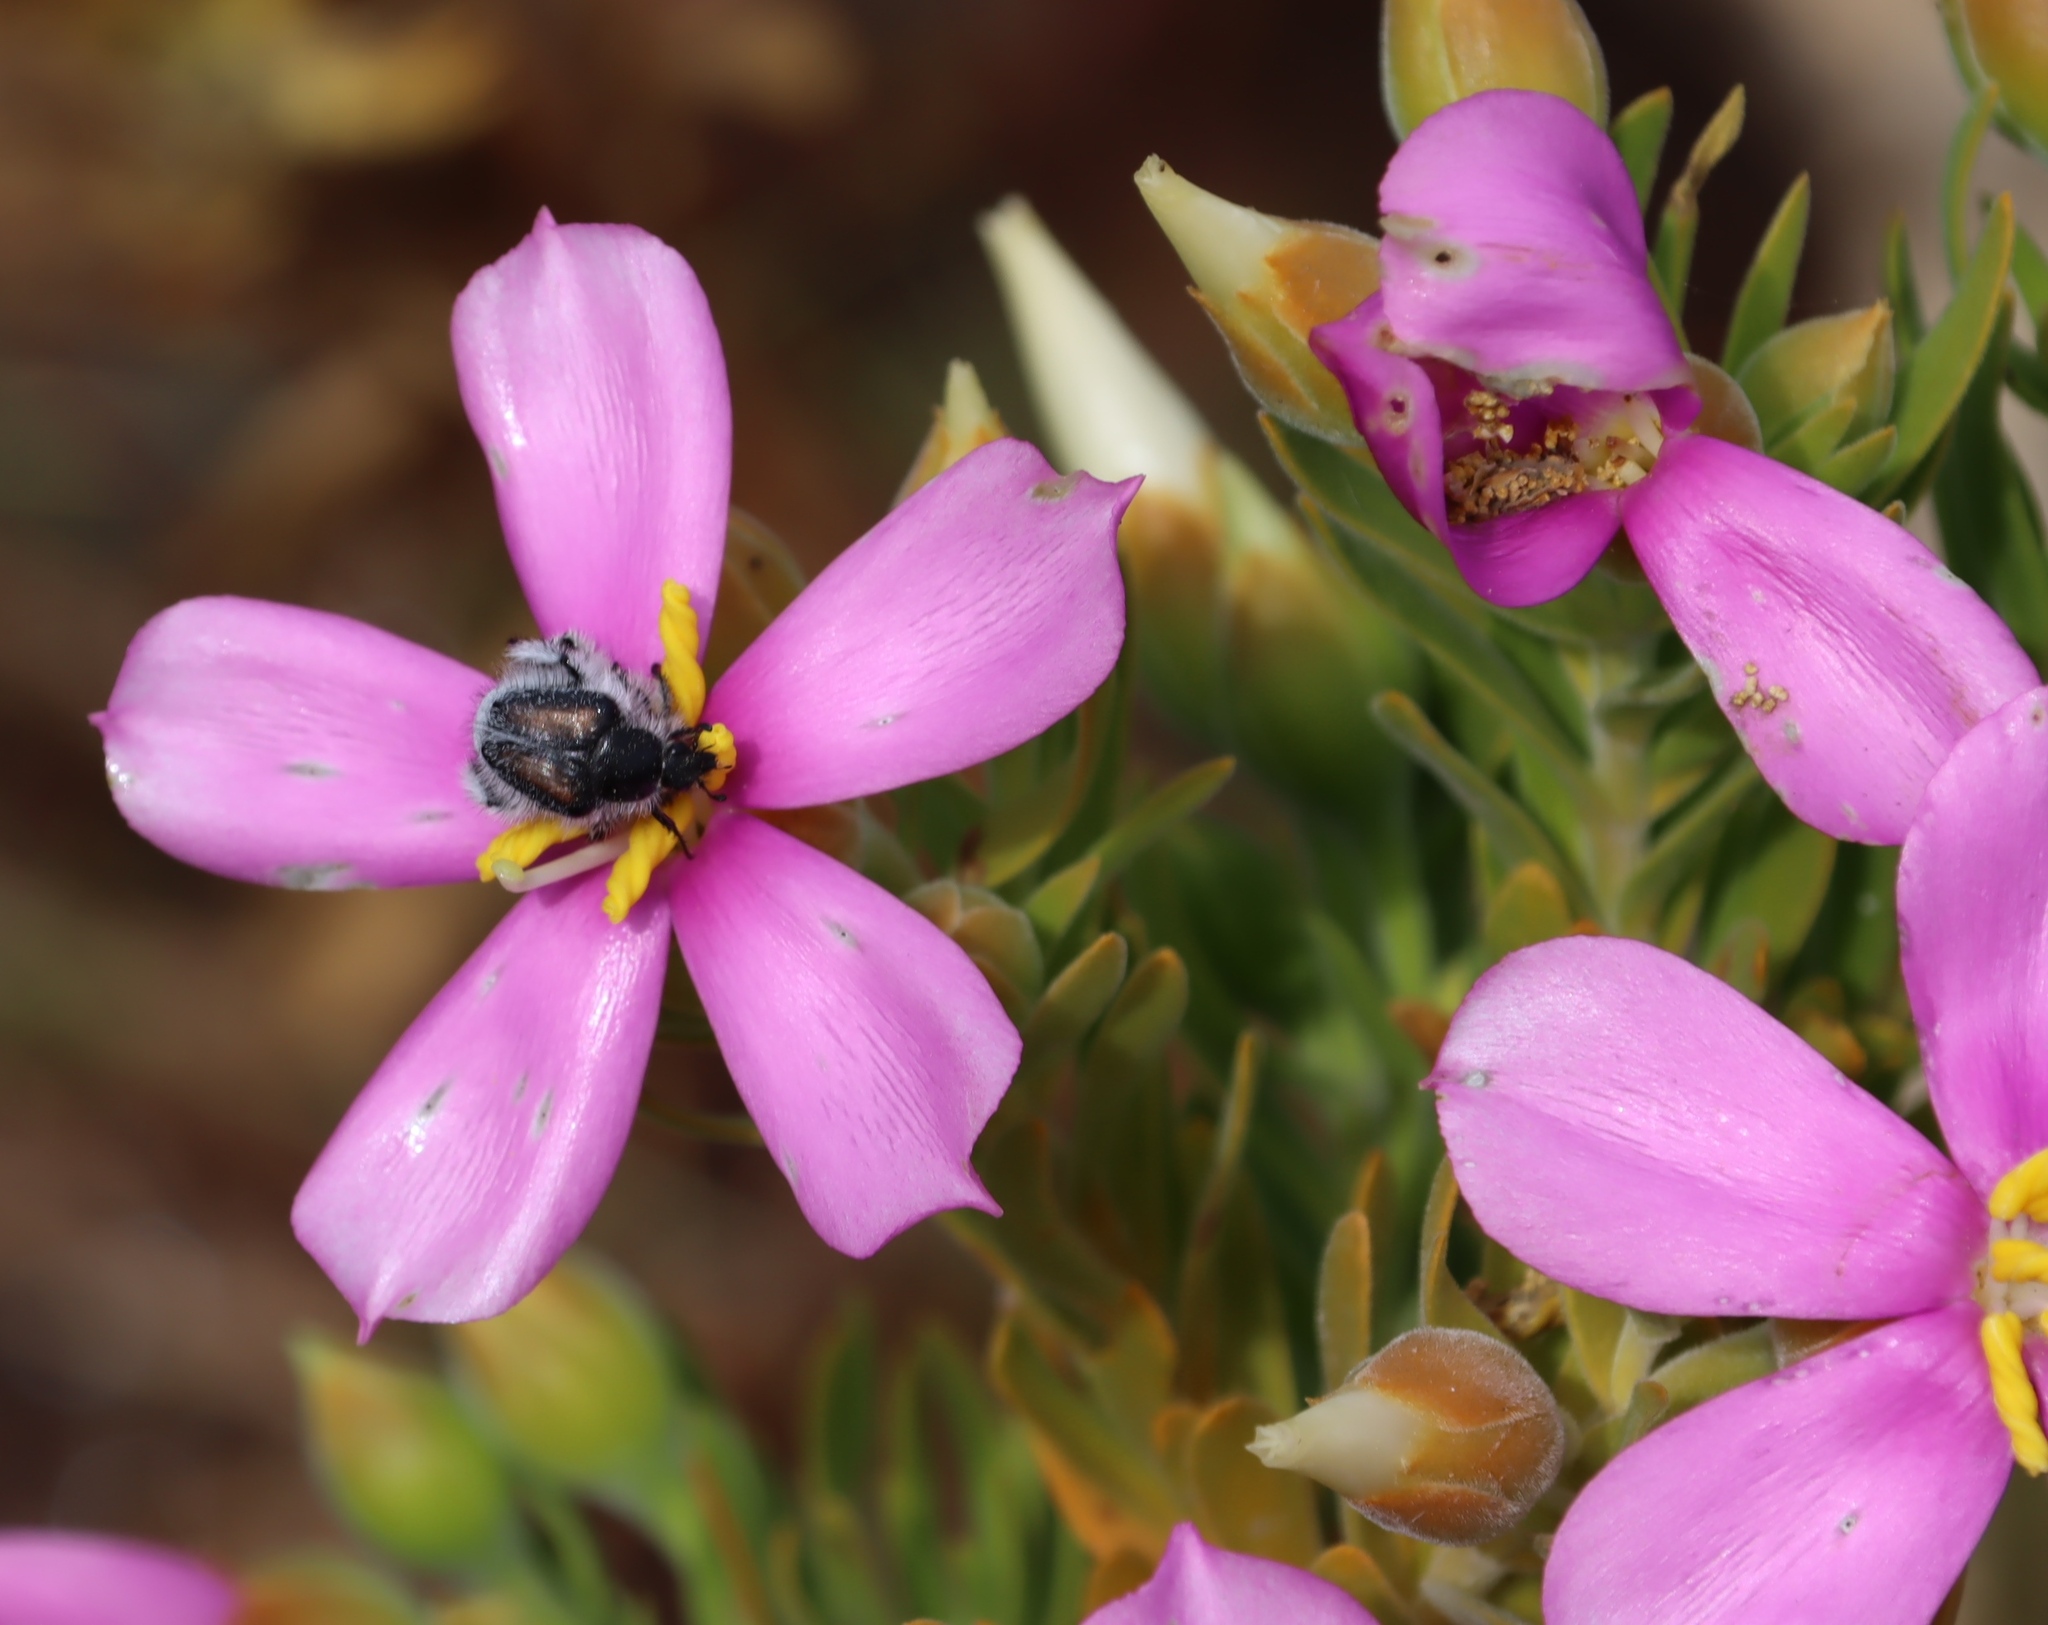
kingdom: Plantae
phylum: Tracheophyta
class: Magnoliopsida
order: Gentianales
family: Gentianaceae
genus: Orphium
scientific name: Orphium frutescens
